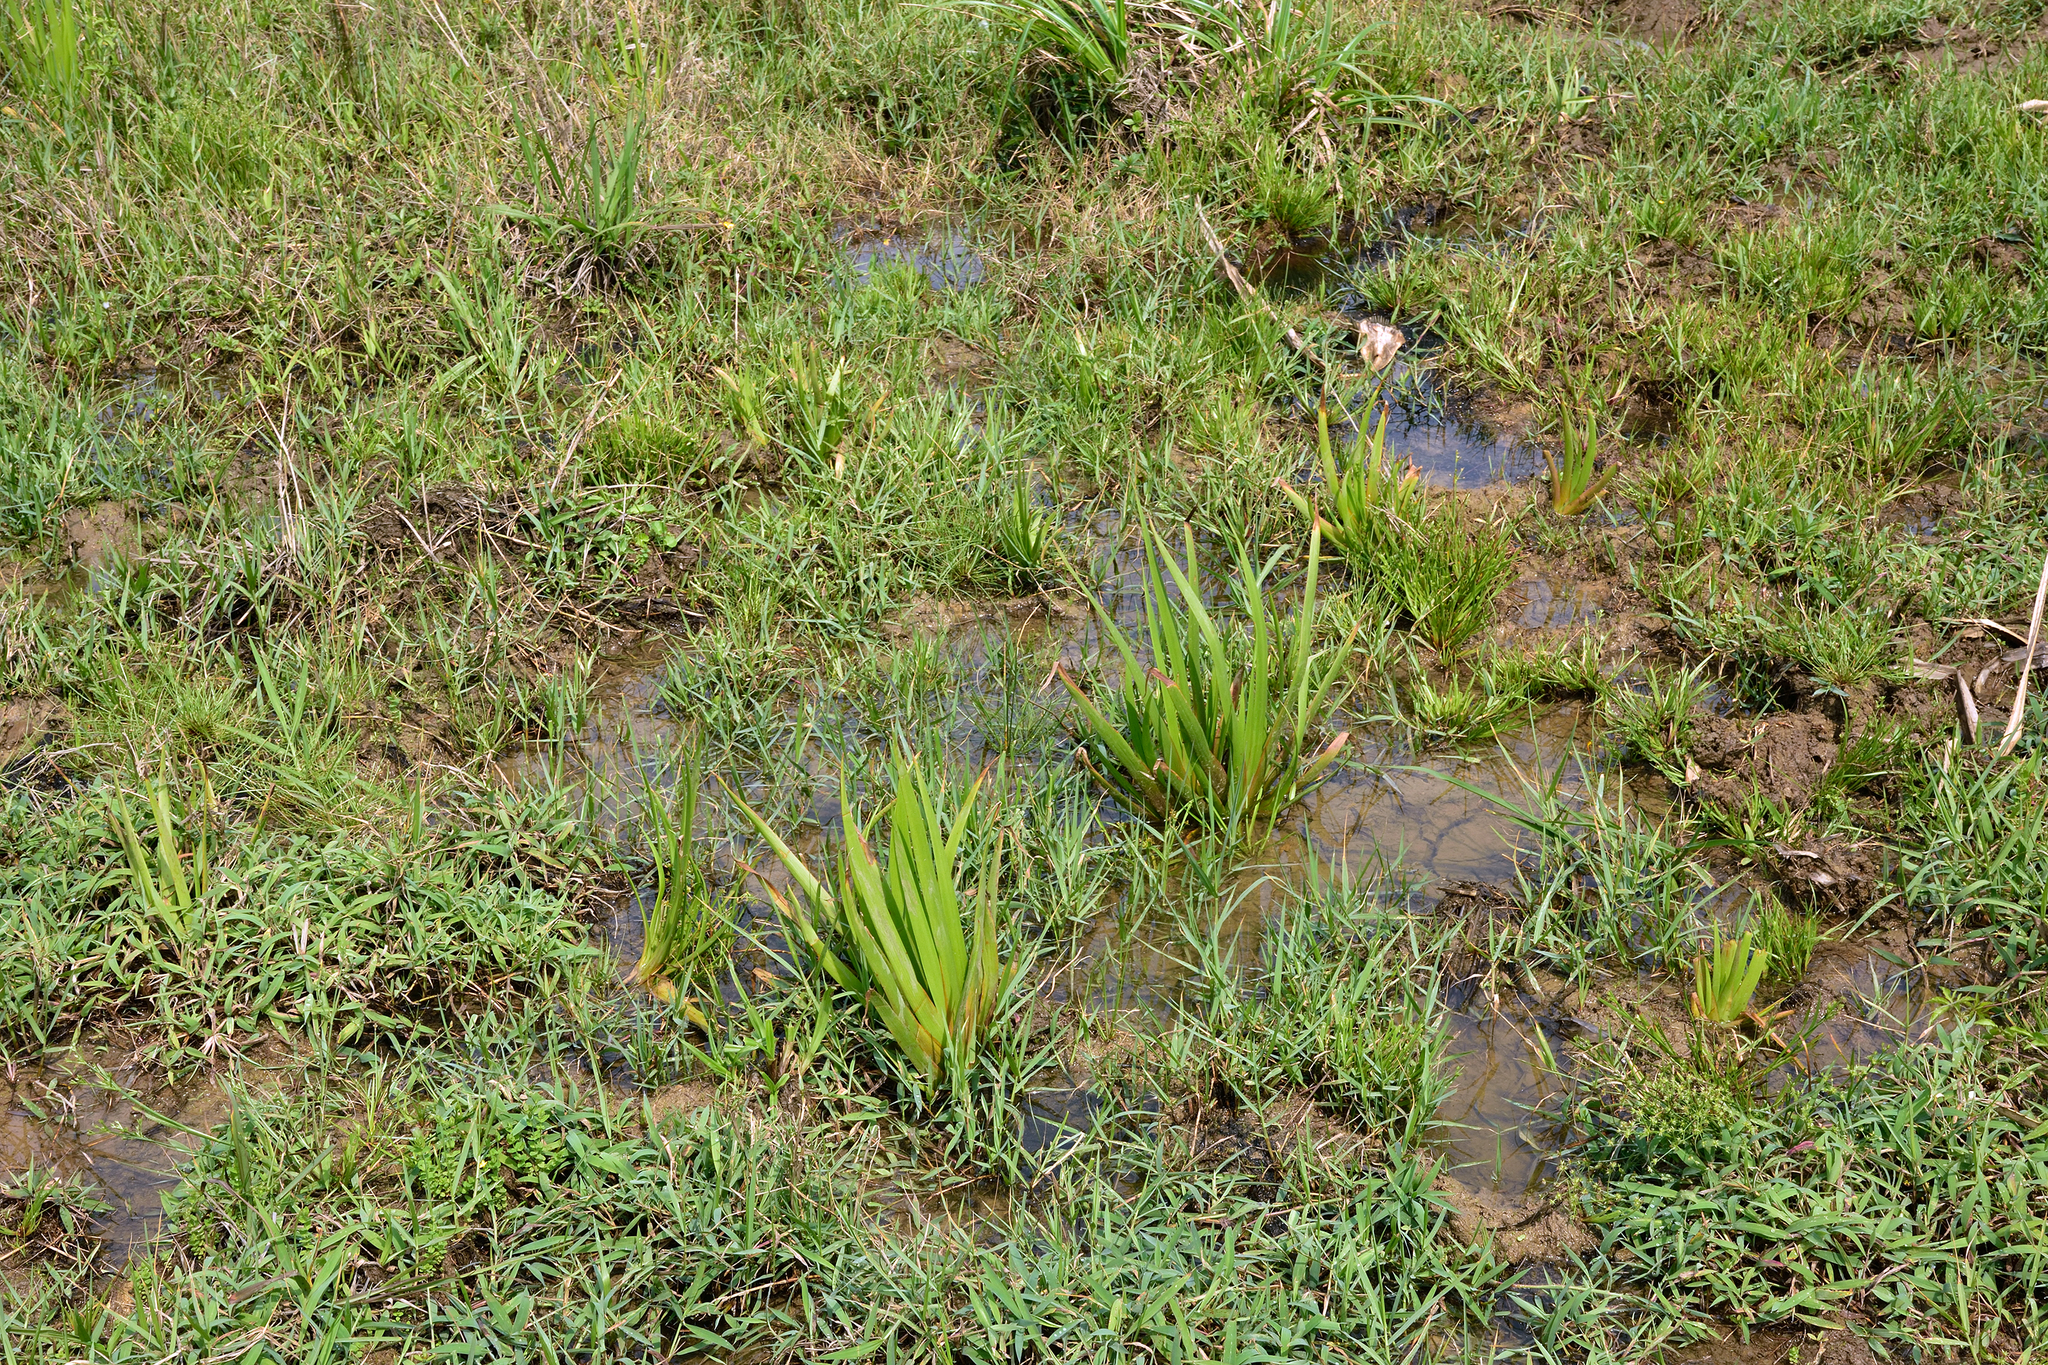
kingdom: Plantae
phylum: Tracheophyta
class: Liliopsida
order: Commelinales
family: Philydraceae
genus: Philydrum
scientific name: Philydrum lanuginosum
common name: Woolly frog's mouth
